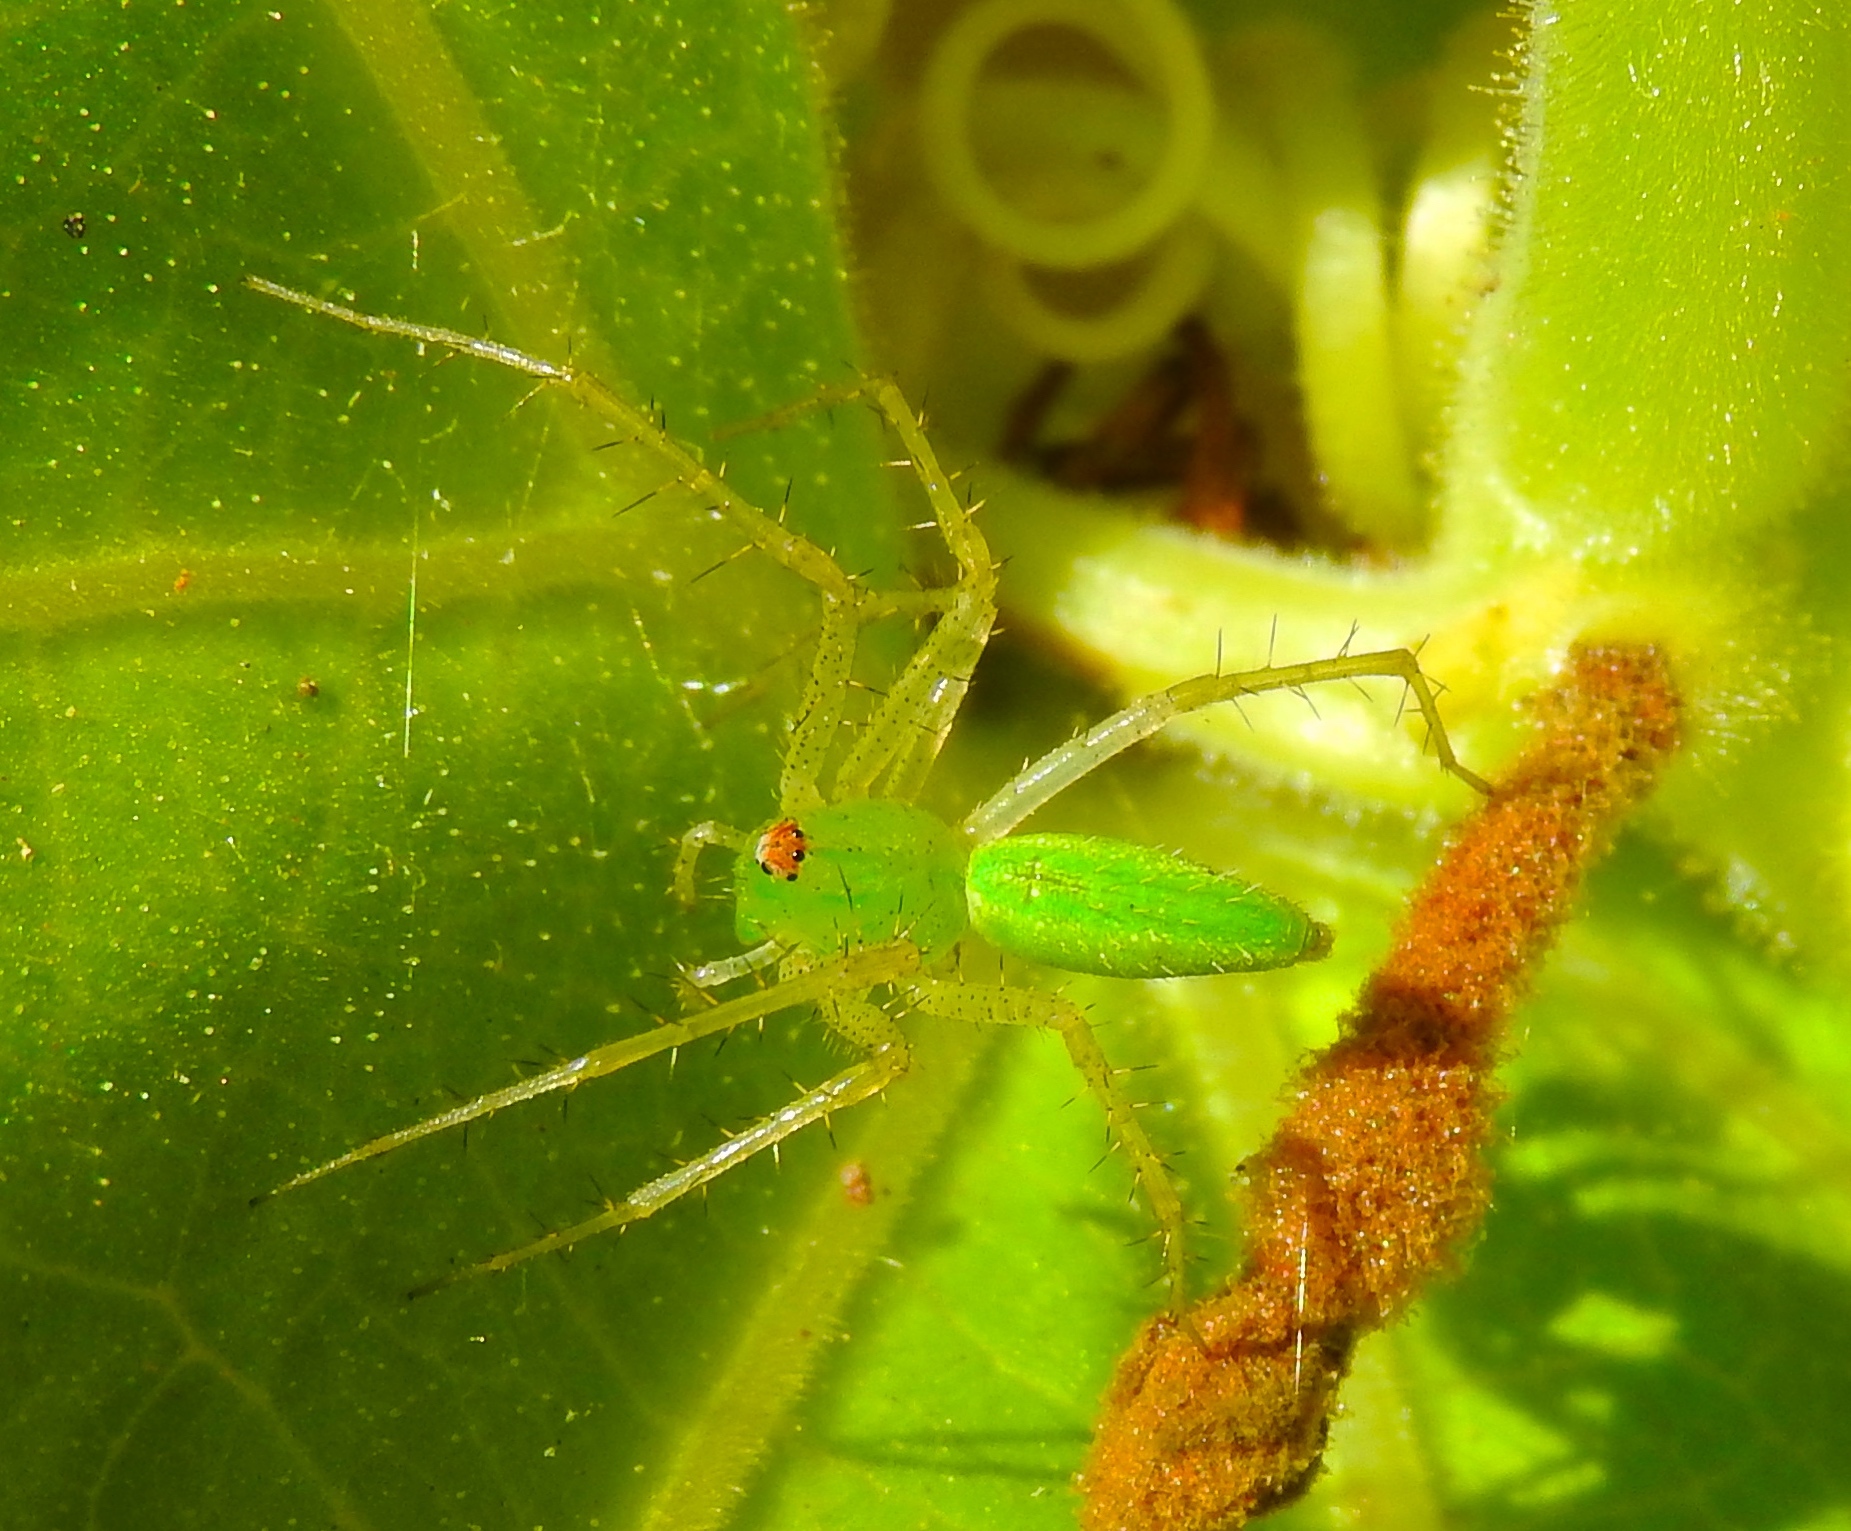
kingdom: Animalia
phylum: Arthropoda
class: Arachnida
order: Araneae
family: Oxyopidae
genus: Peucetia
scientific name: Peucetia
